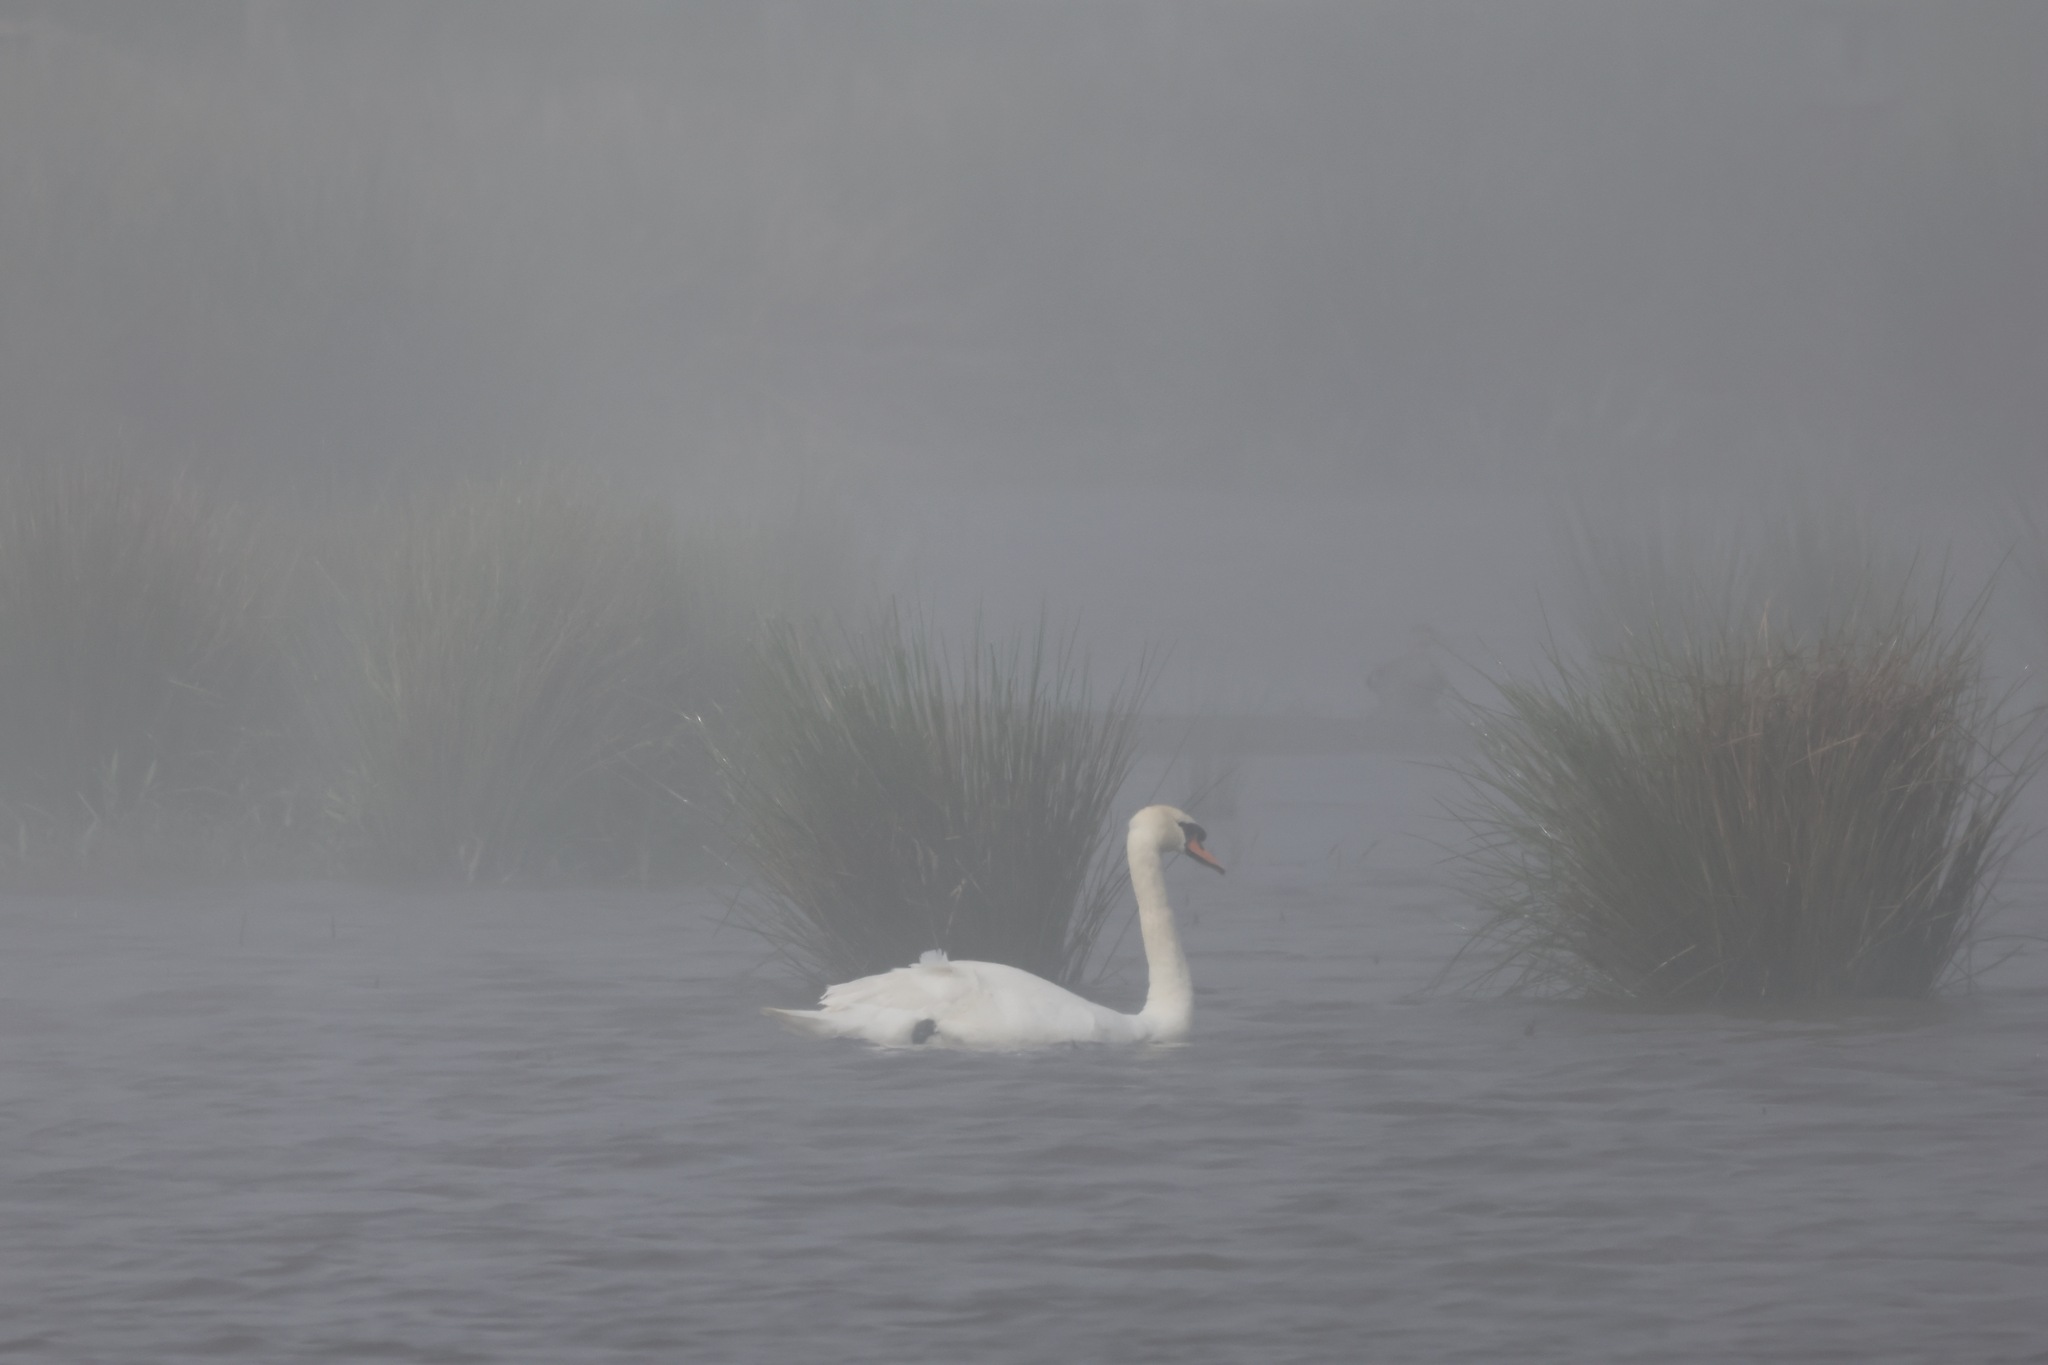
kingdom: Animalia
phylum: Chordata
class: Aves
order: Anseriformes
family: Anatidae
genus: Cygnus
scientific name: Cygnus olor
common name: Mute swan
